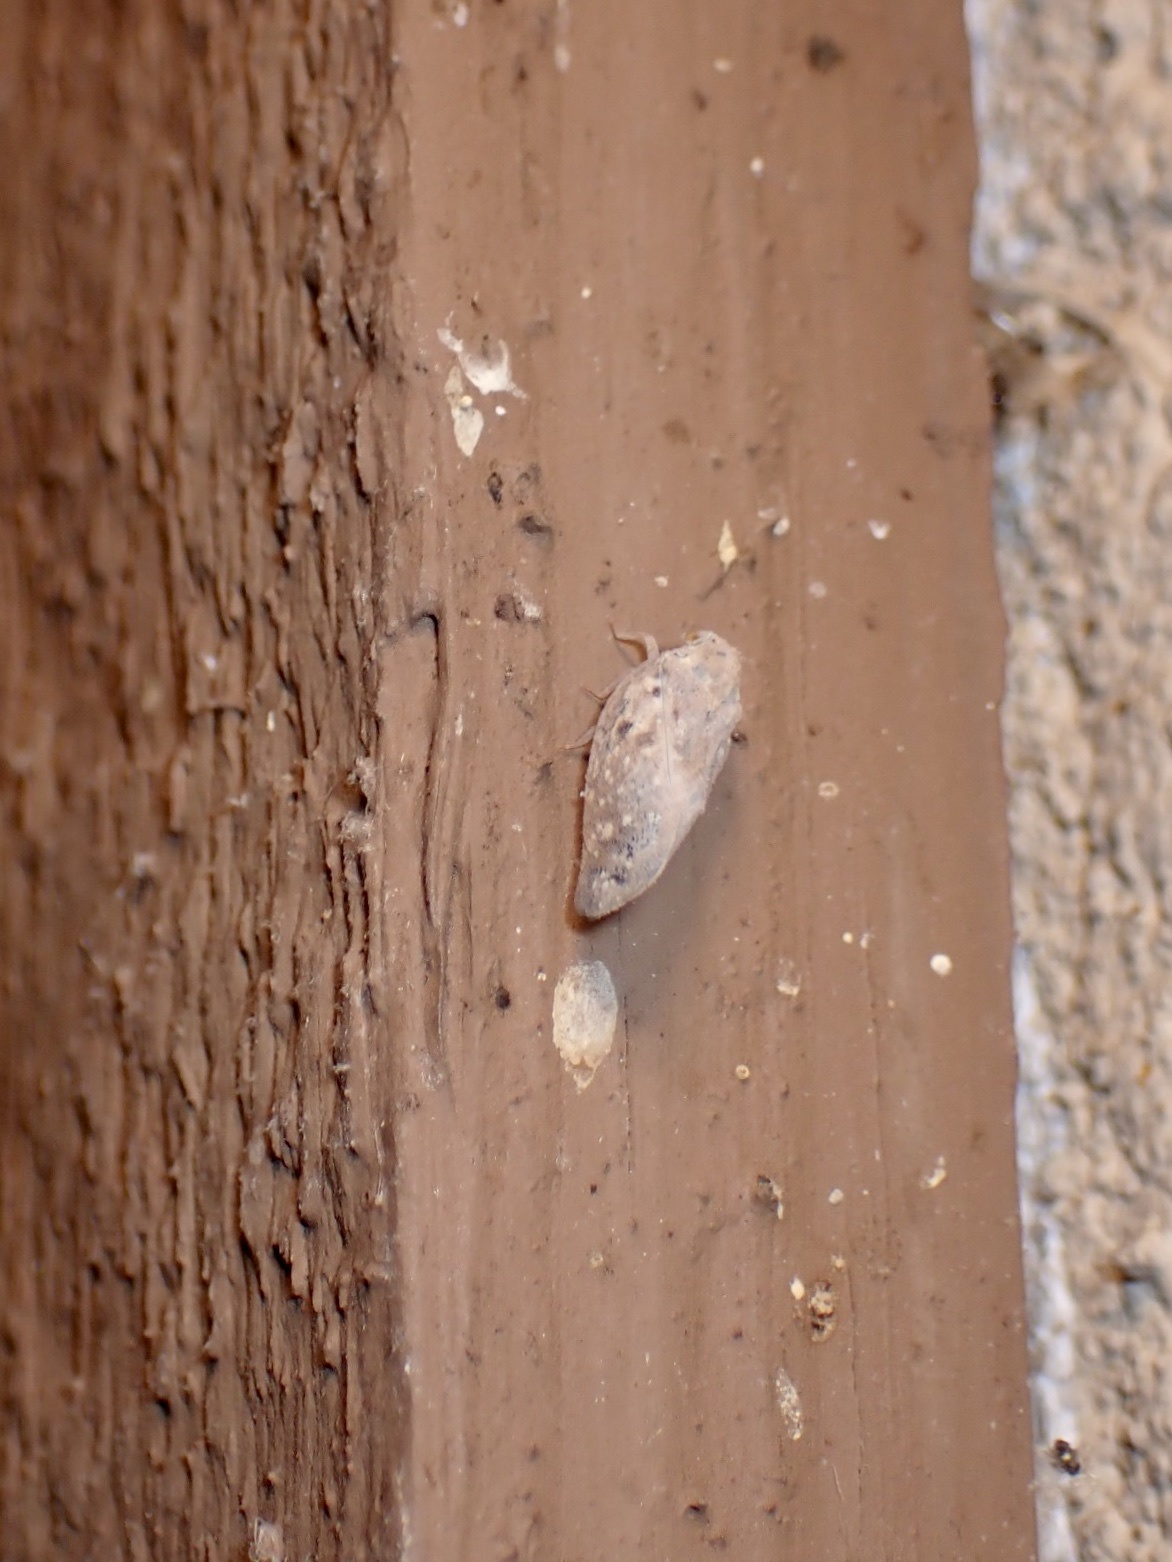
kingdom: Animalia
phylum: Arthropoda
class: Insecta
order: Hemiptera
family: Flatidae
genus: Metcalfa
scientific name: Metcalfa pruinosa
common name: Citrus flatid planthopper
